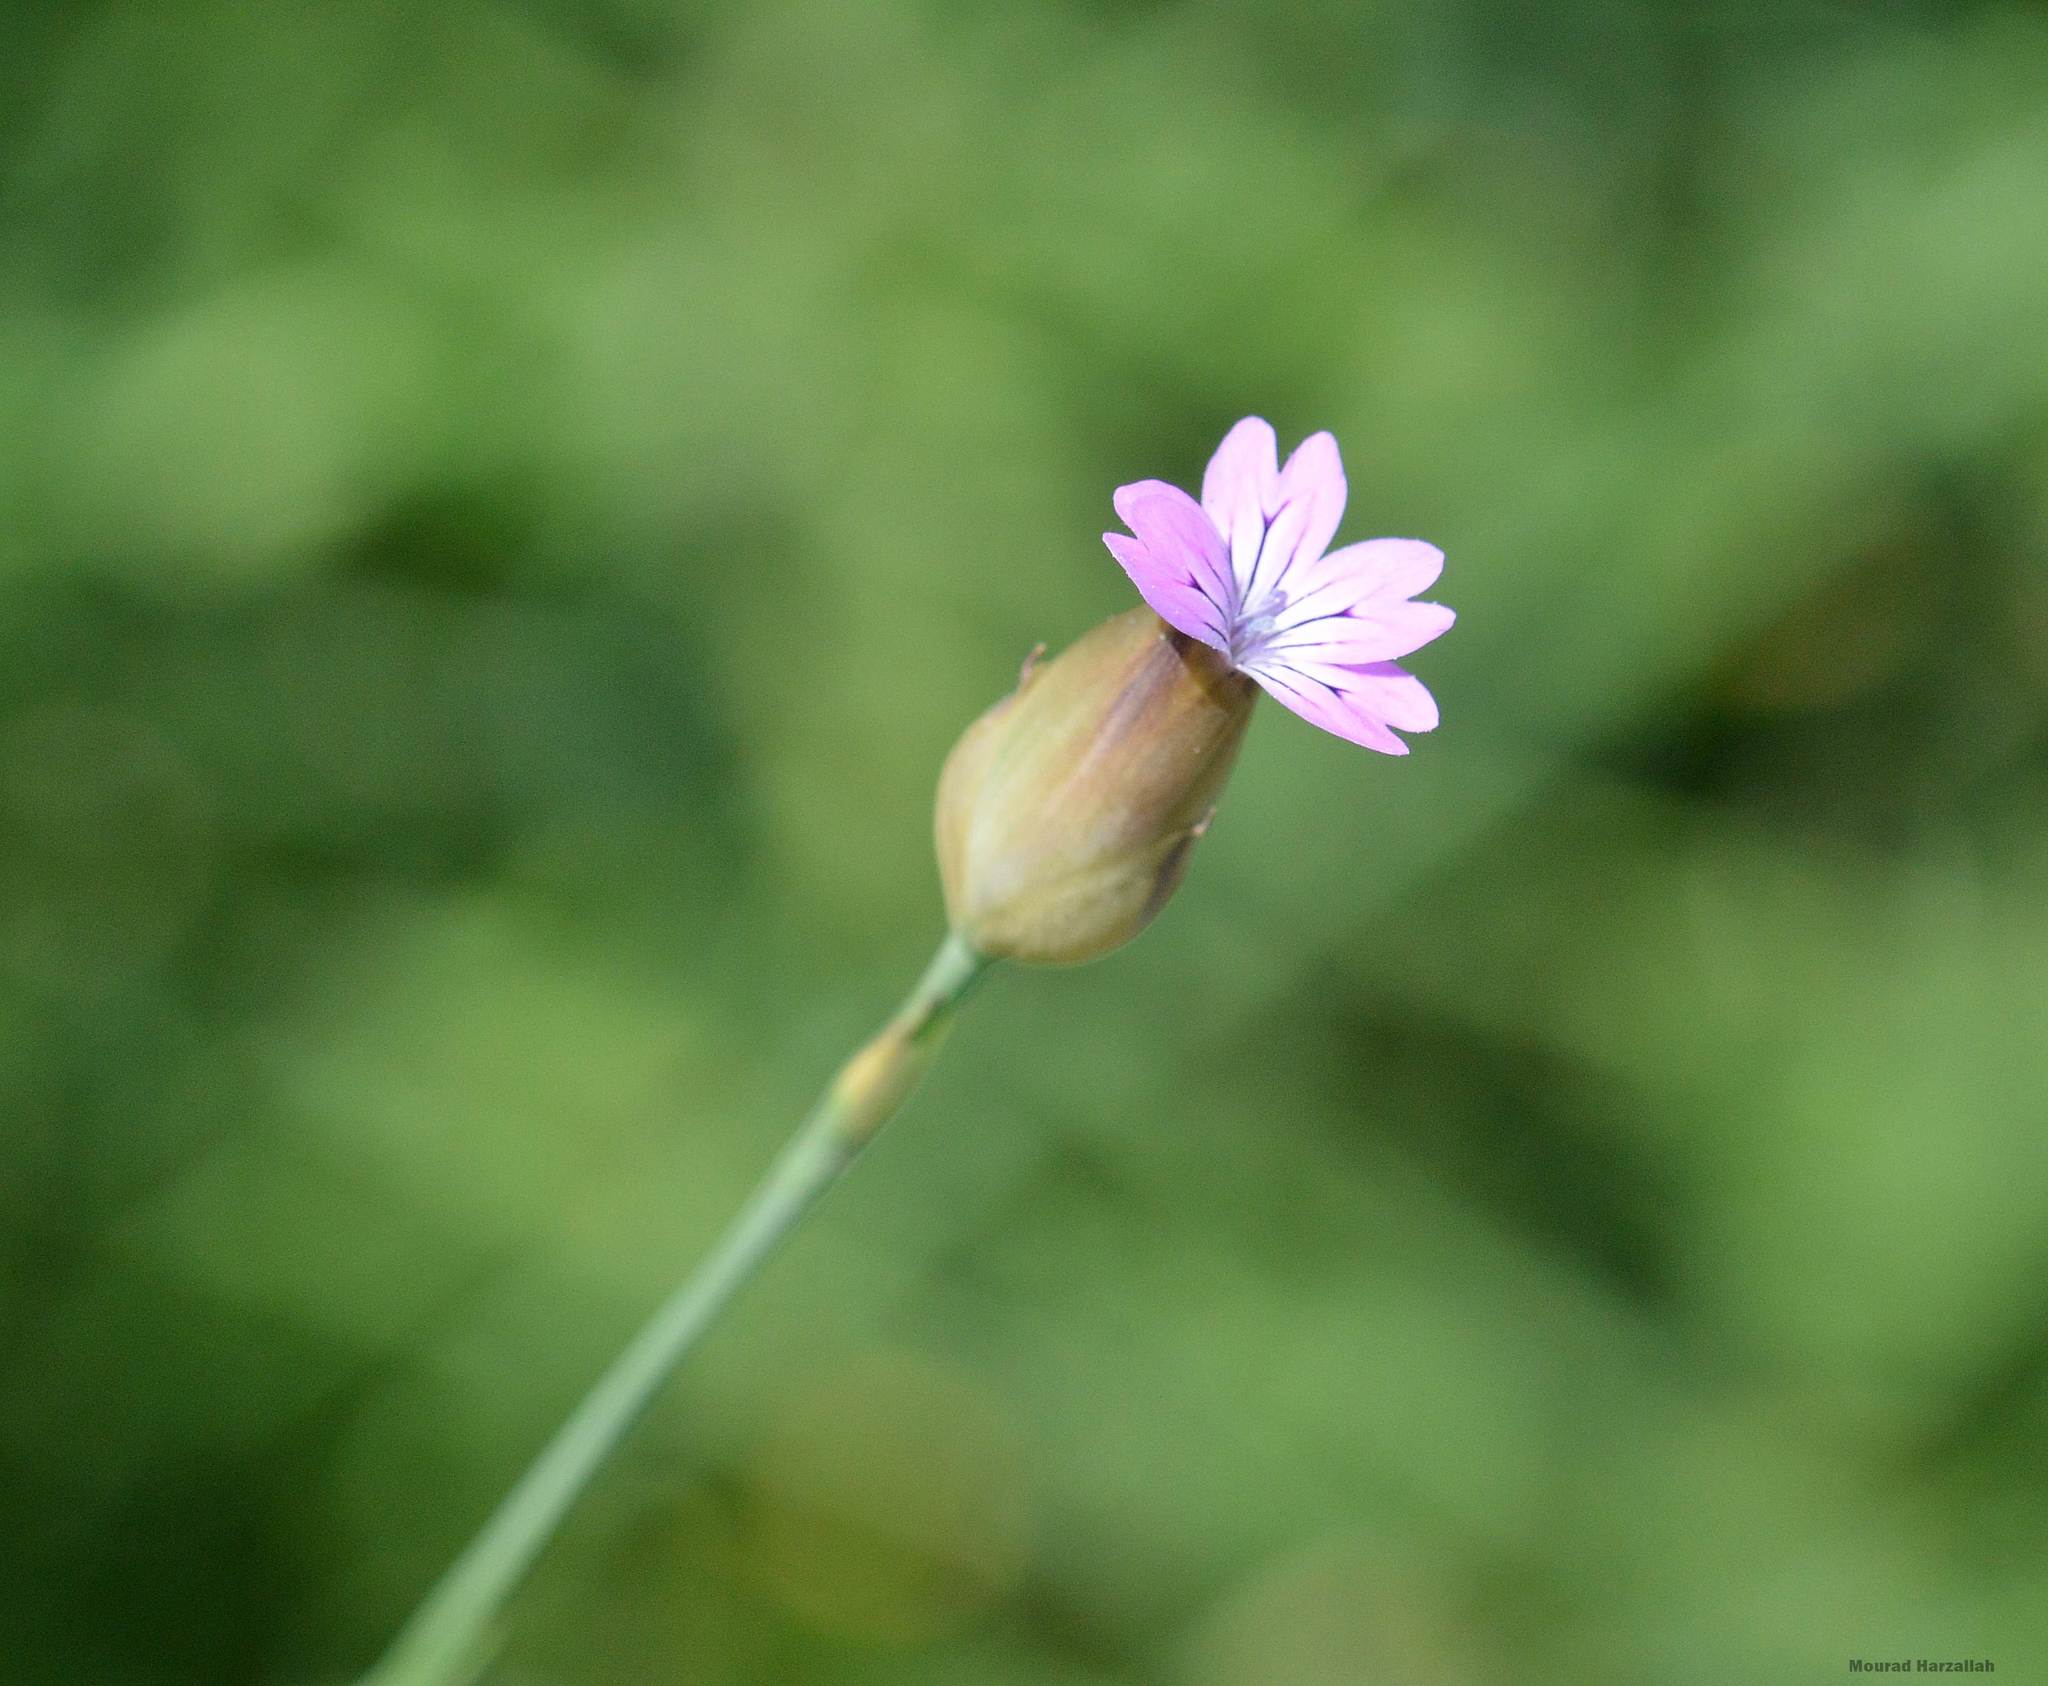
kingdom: Plantae
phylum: Tracheophyta
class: Magnoliopsida
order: Caryophyllales
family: Caryophyllaceae
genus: Petrorhagia
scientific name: Petrorhagia dubia
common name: Hairypink
